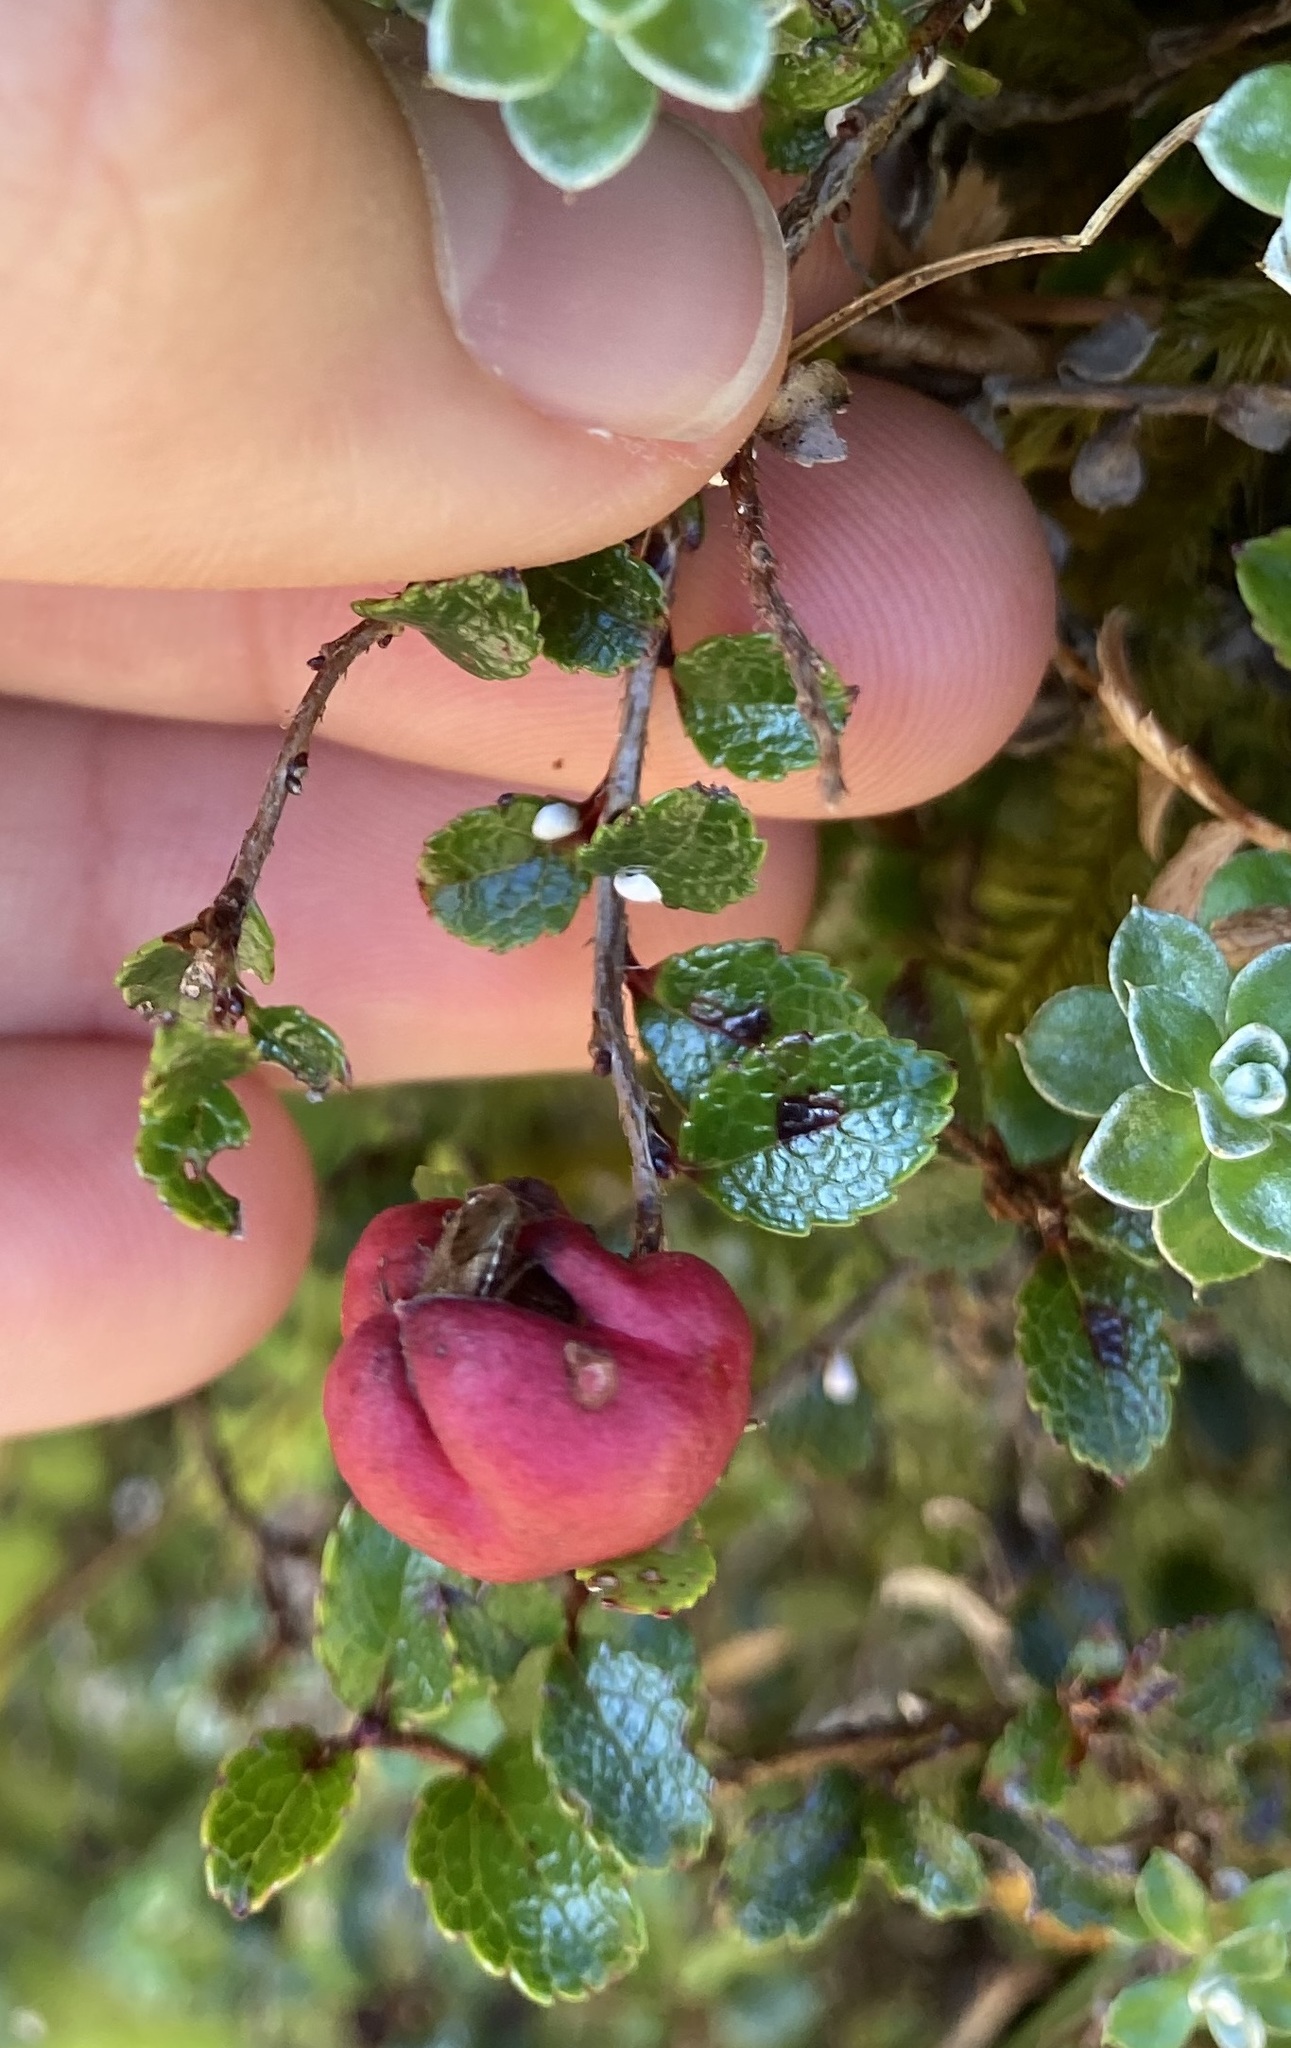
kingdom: Plantae
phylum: Tracheophyta
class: Magnoliopsida
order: Ericales
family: Ericaceae
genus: Gaultheria
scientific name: Gaultheria depressa
